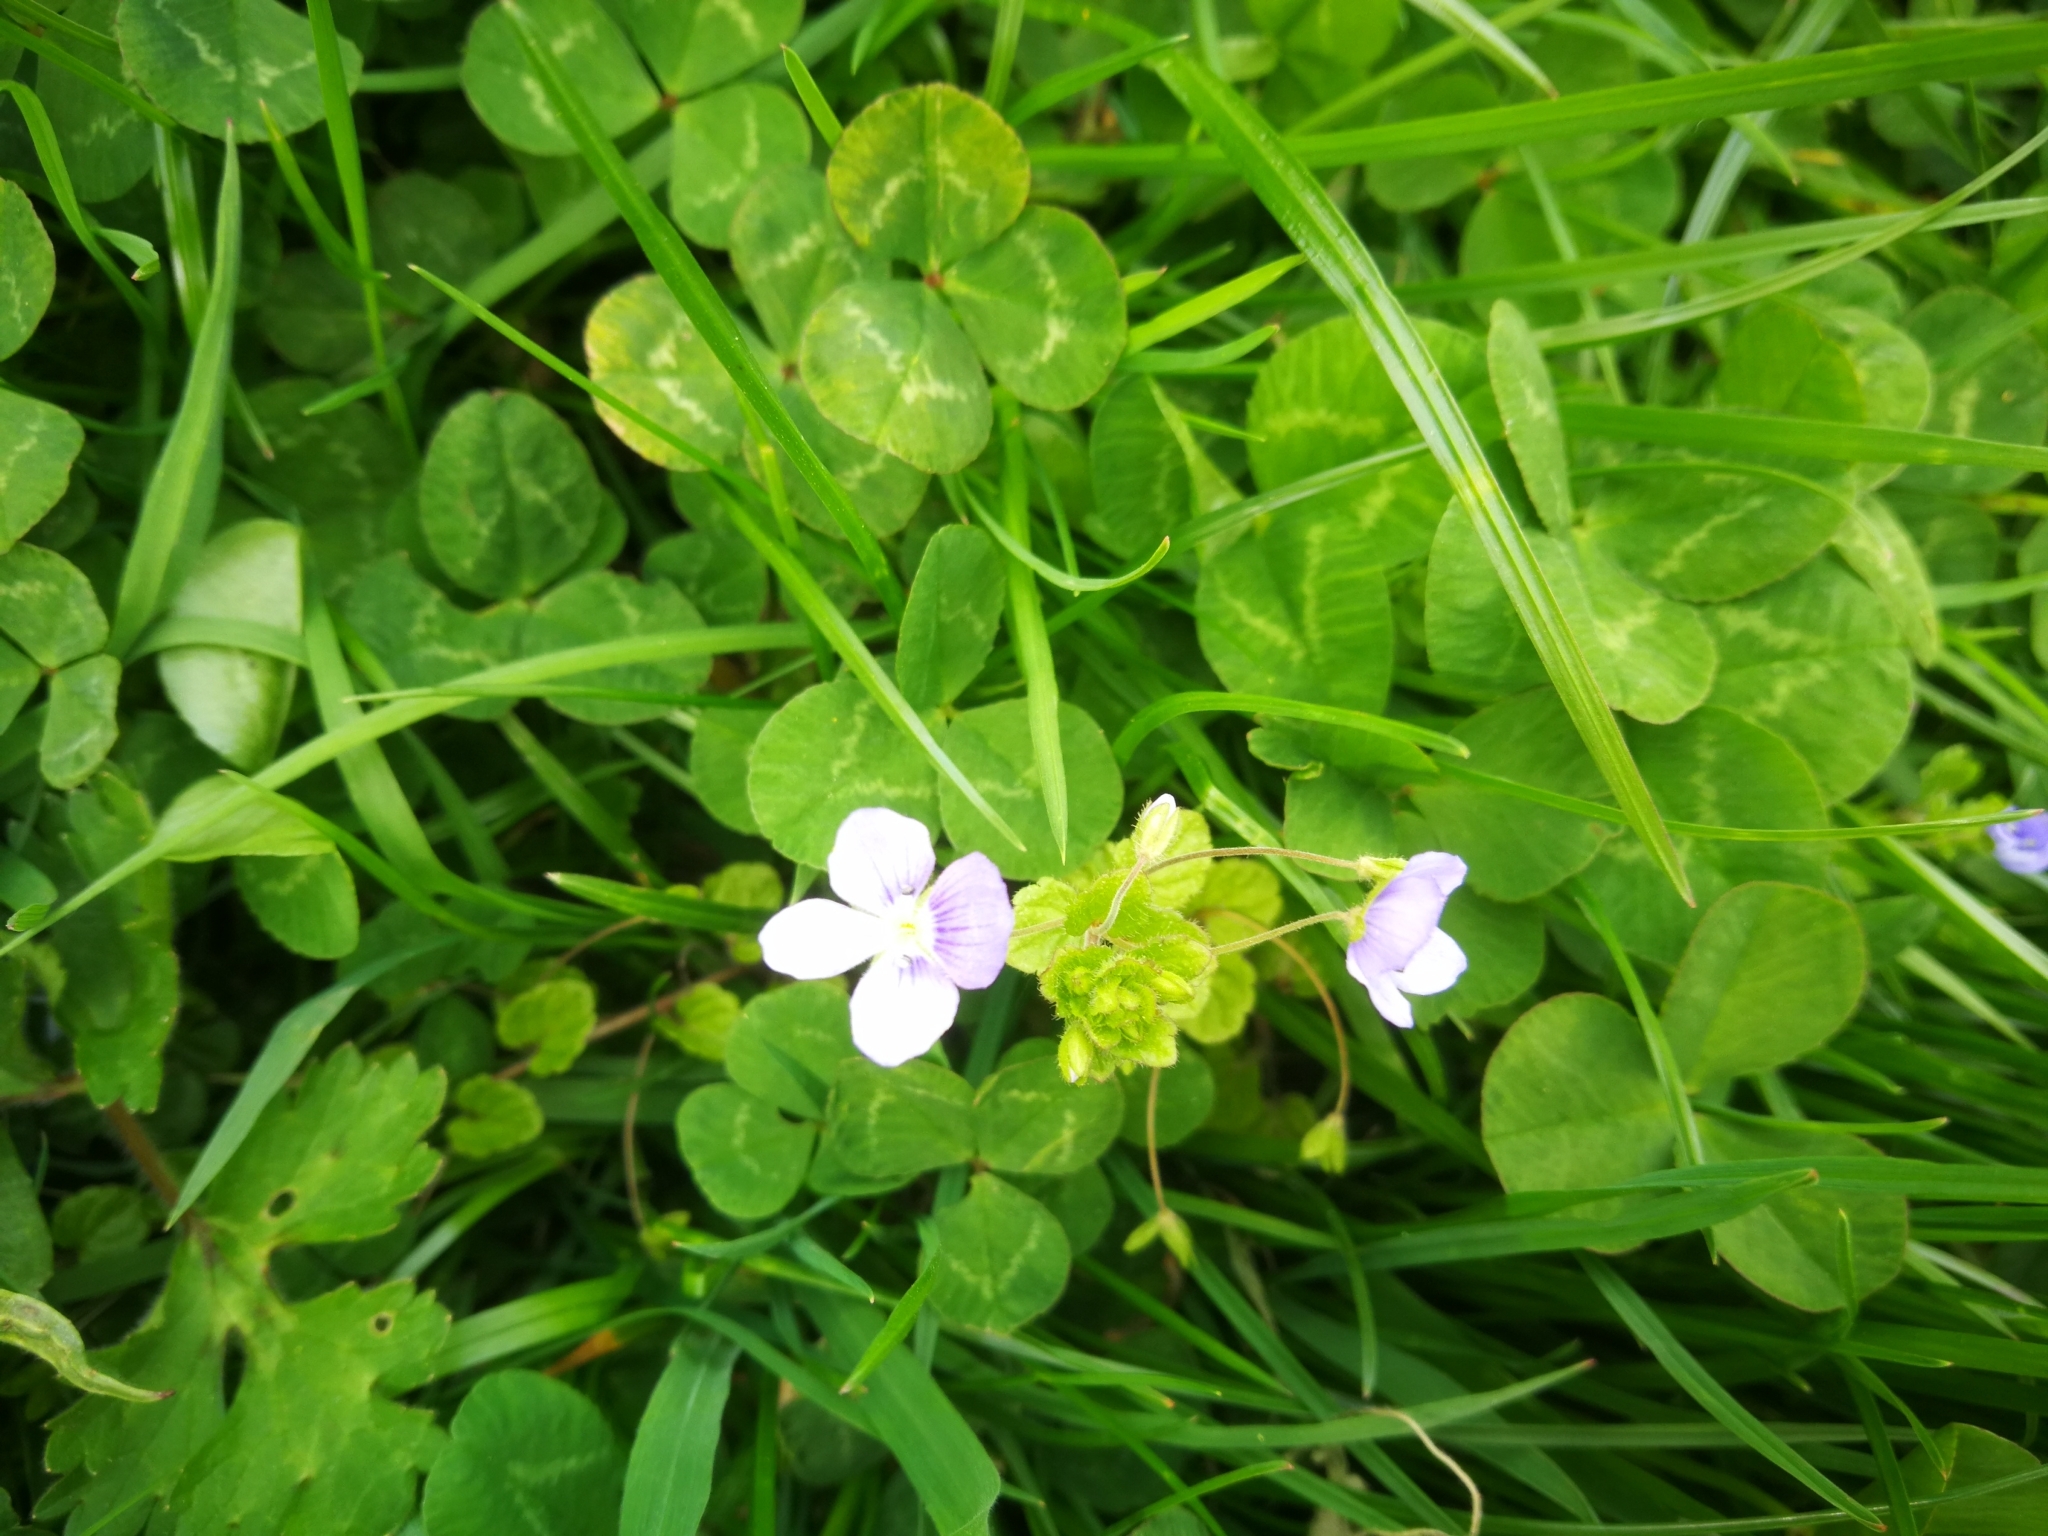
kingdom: Plantae
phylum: Tracheophyta
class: Magnoliopsida
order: Lamiales
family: Plantaginaceae
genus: Veronica
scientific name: Veronica filiformis
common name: Slender speedwell
